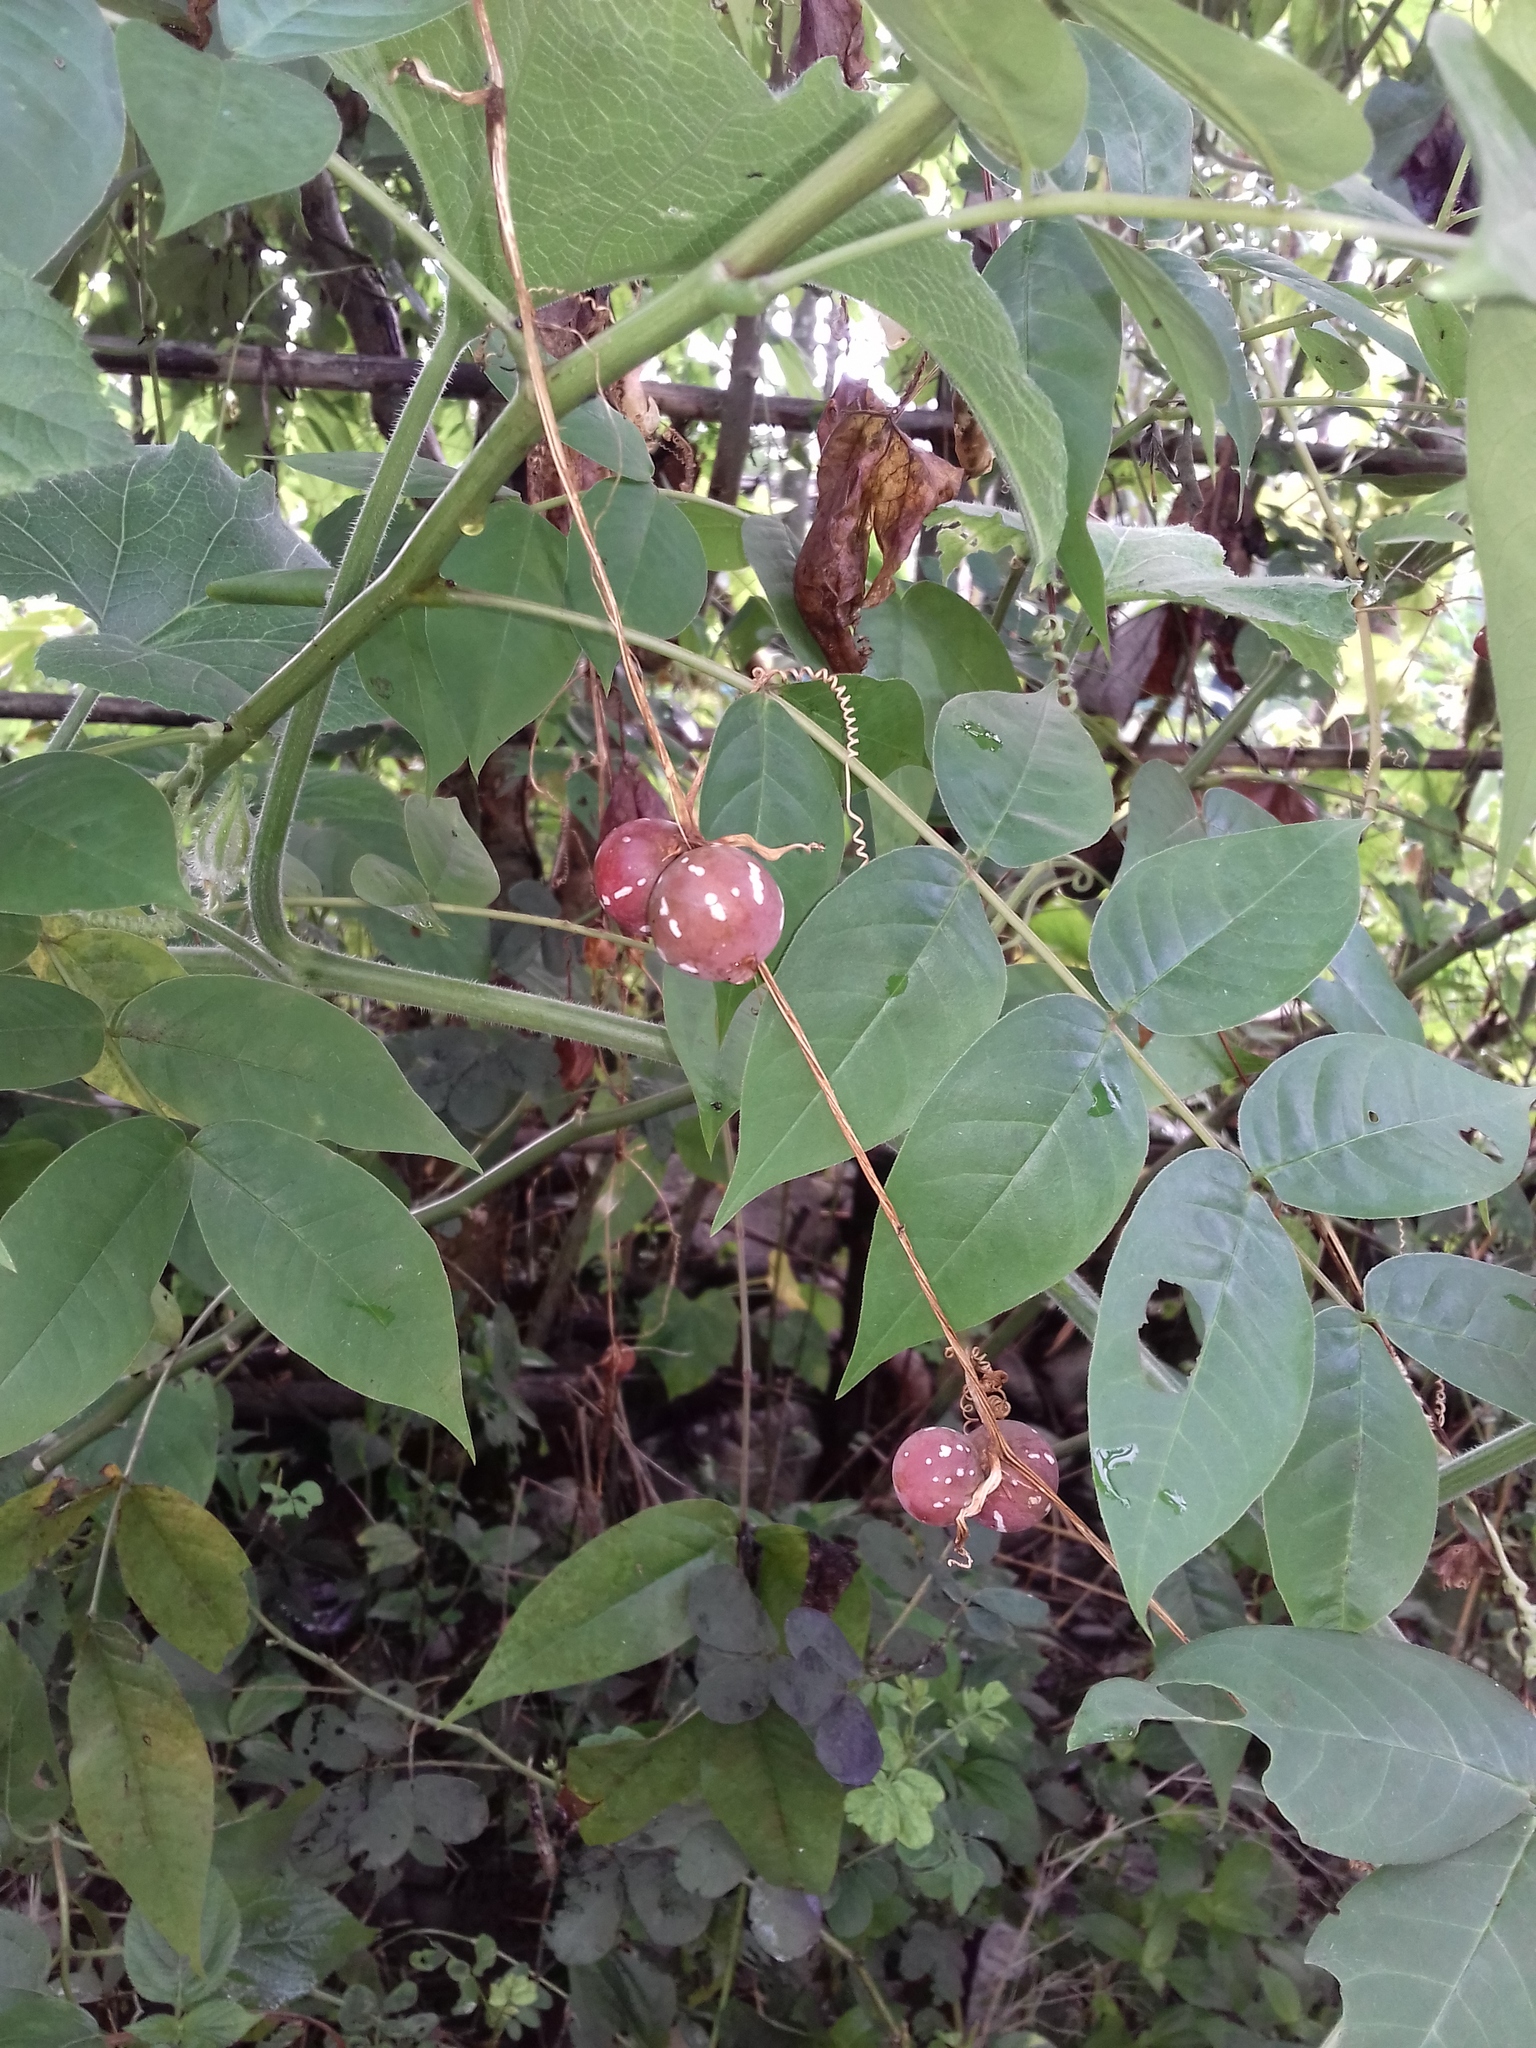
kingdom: Plantae
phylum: Tracheophyta
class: Magnoliopsida
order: Cucurbitales
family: Cucurbitaceae
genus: Diplocyclos
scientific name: Diplocyclos palmatus
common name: Striped-cucumber
